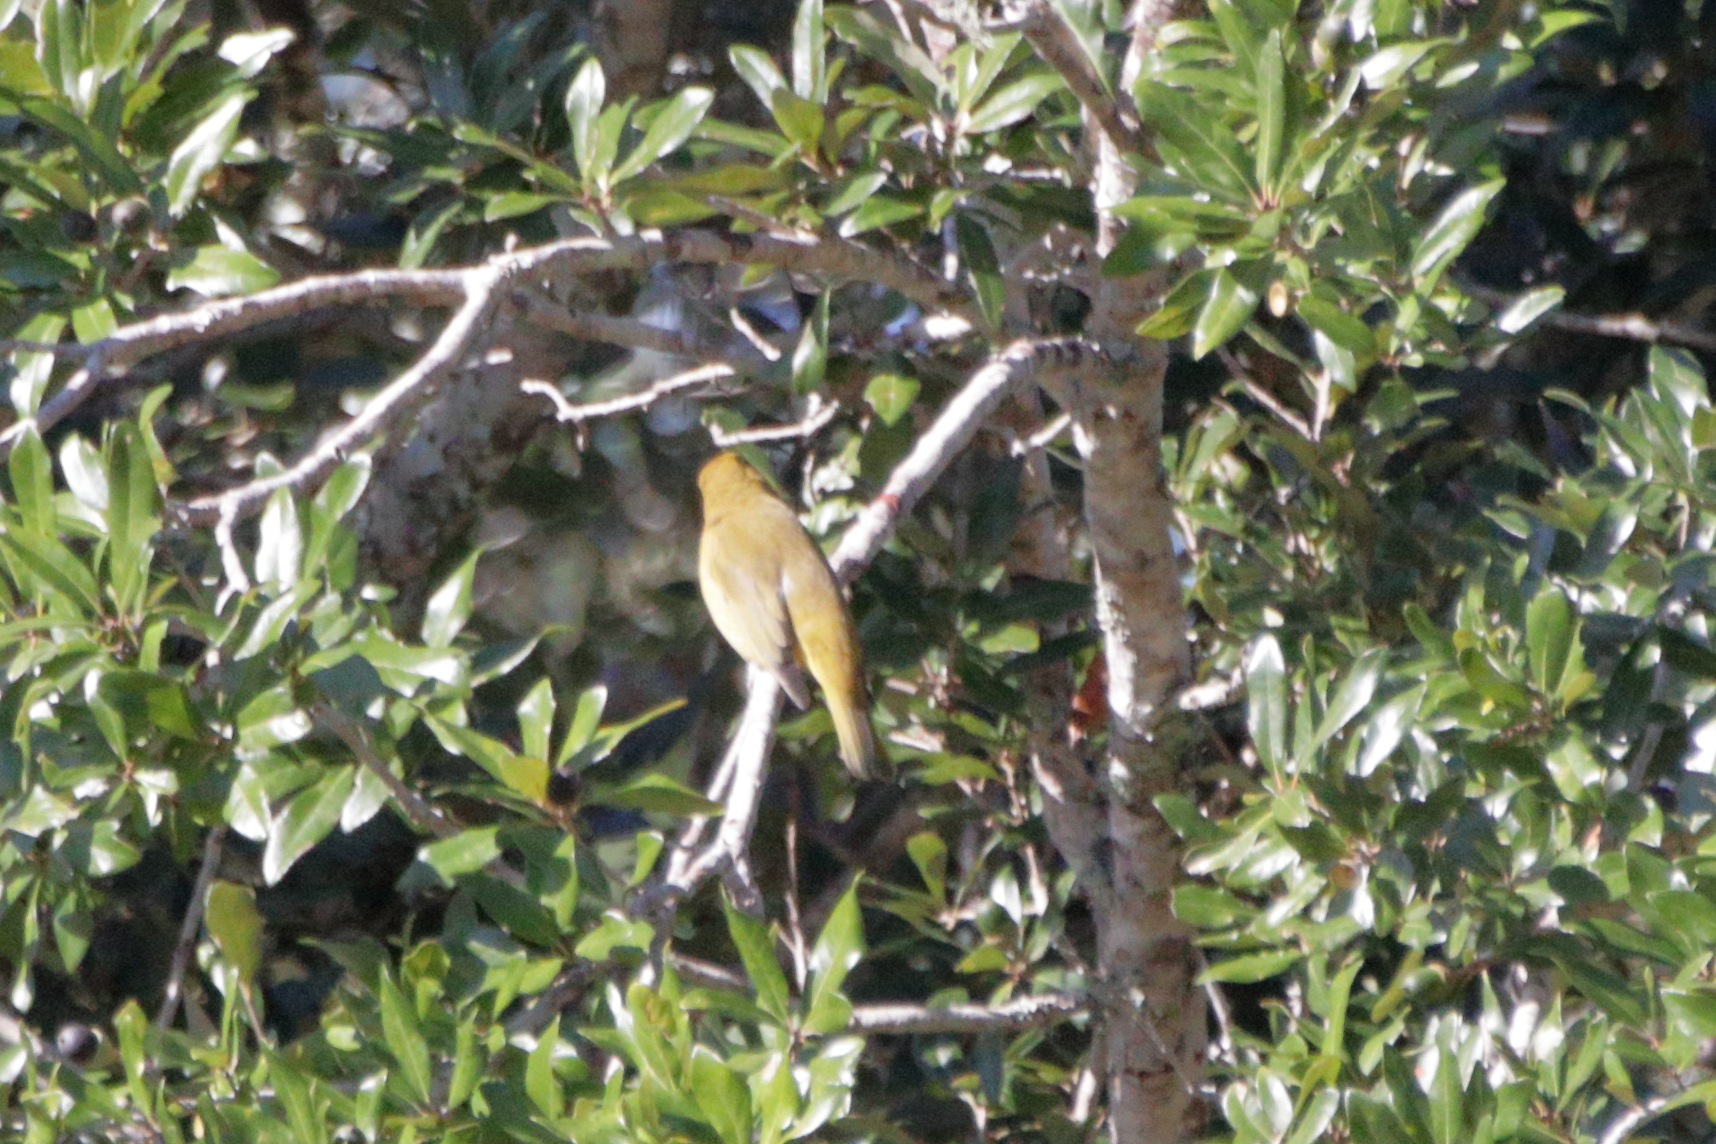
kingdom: Animalia
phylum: Chordata
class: Aves
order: Passeriformes
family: Cardinalidae
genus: Piranga
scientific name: Piranga rubra
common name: Summer tanager
